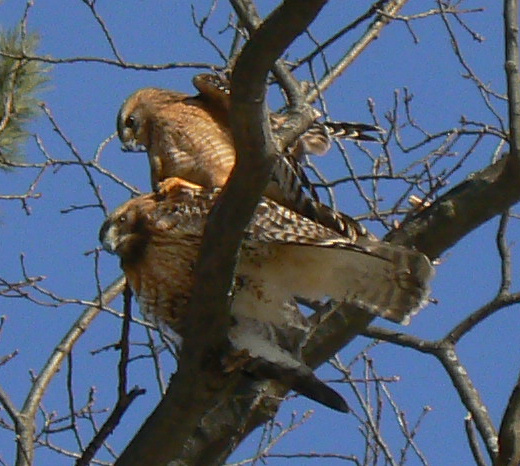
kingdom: Animalia
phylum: Chordata
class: Aves
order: Accipitriformes
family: Accipitridae
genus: Buteo
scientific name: Buteo lineatus
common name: Red-shouldered hawk
